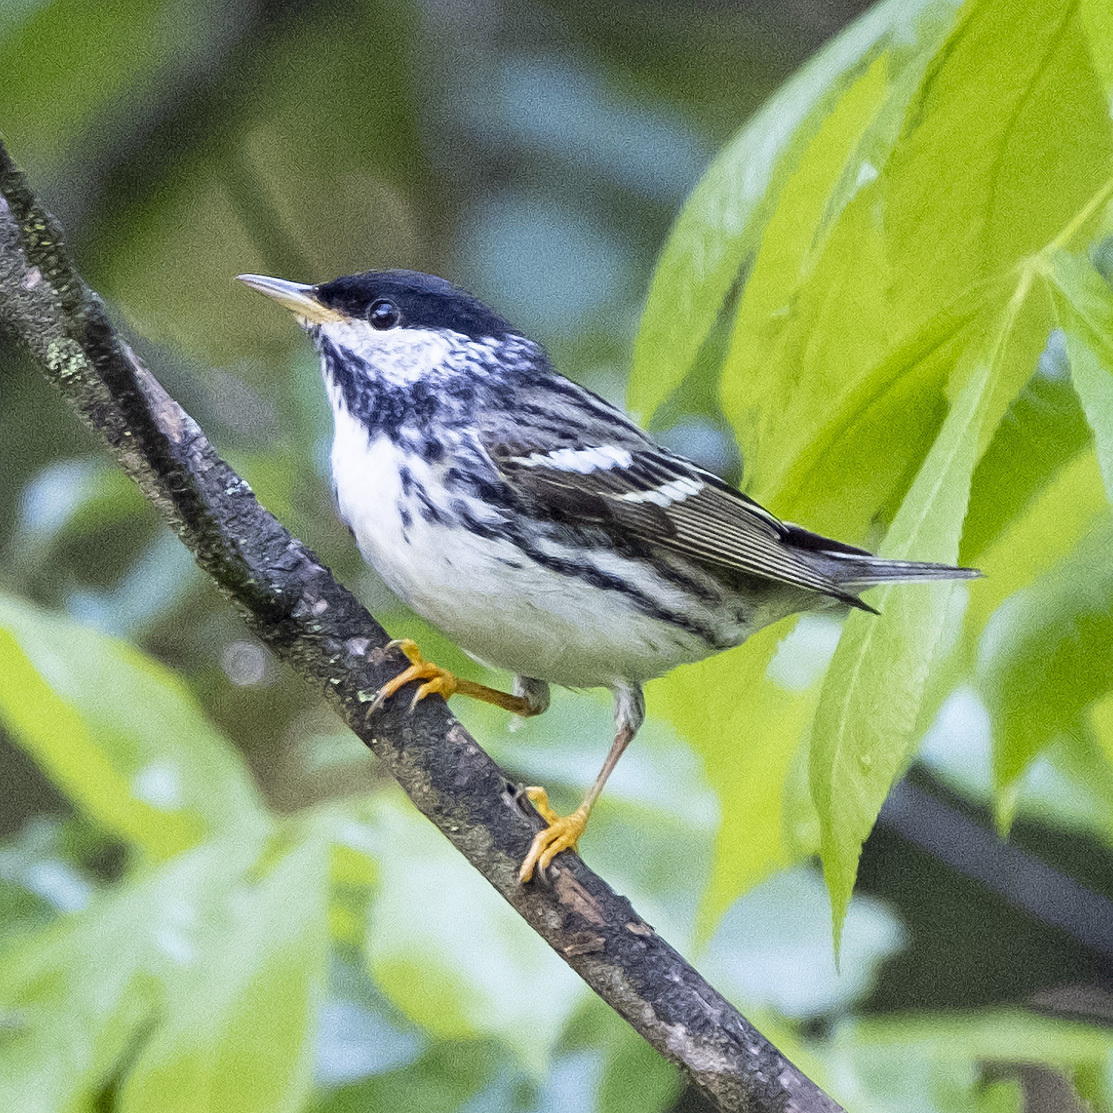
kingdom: Animalia
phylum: Chordata
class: Aves
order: Passeriformes
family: Parulidae
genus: Setophaga
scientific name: Setophaga striata
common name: Blackpoll warbler
